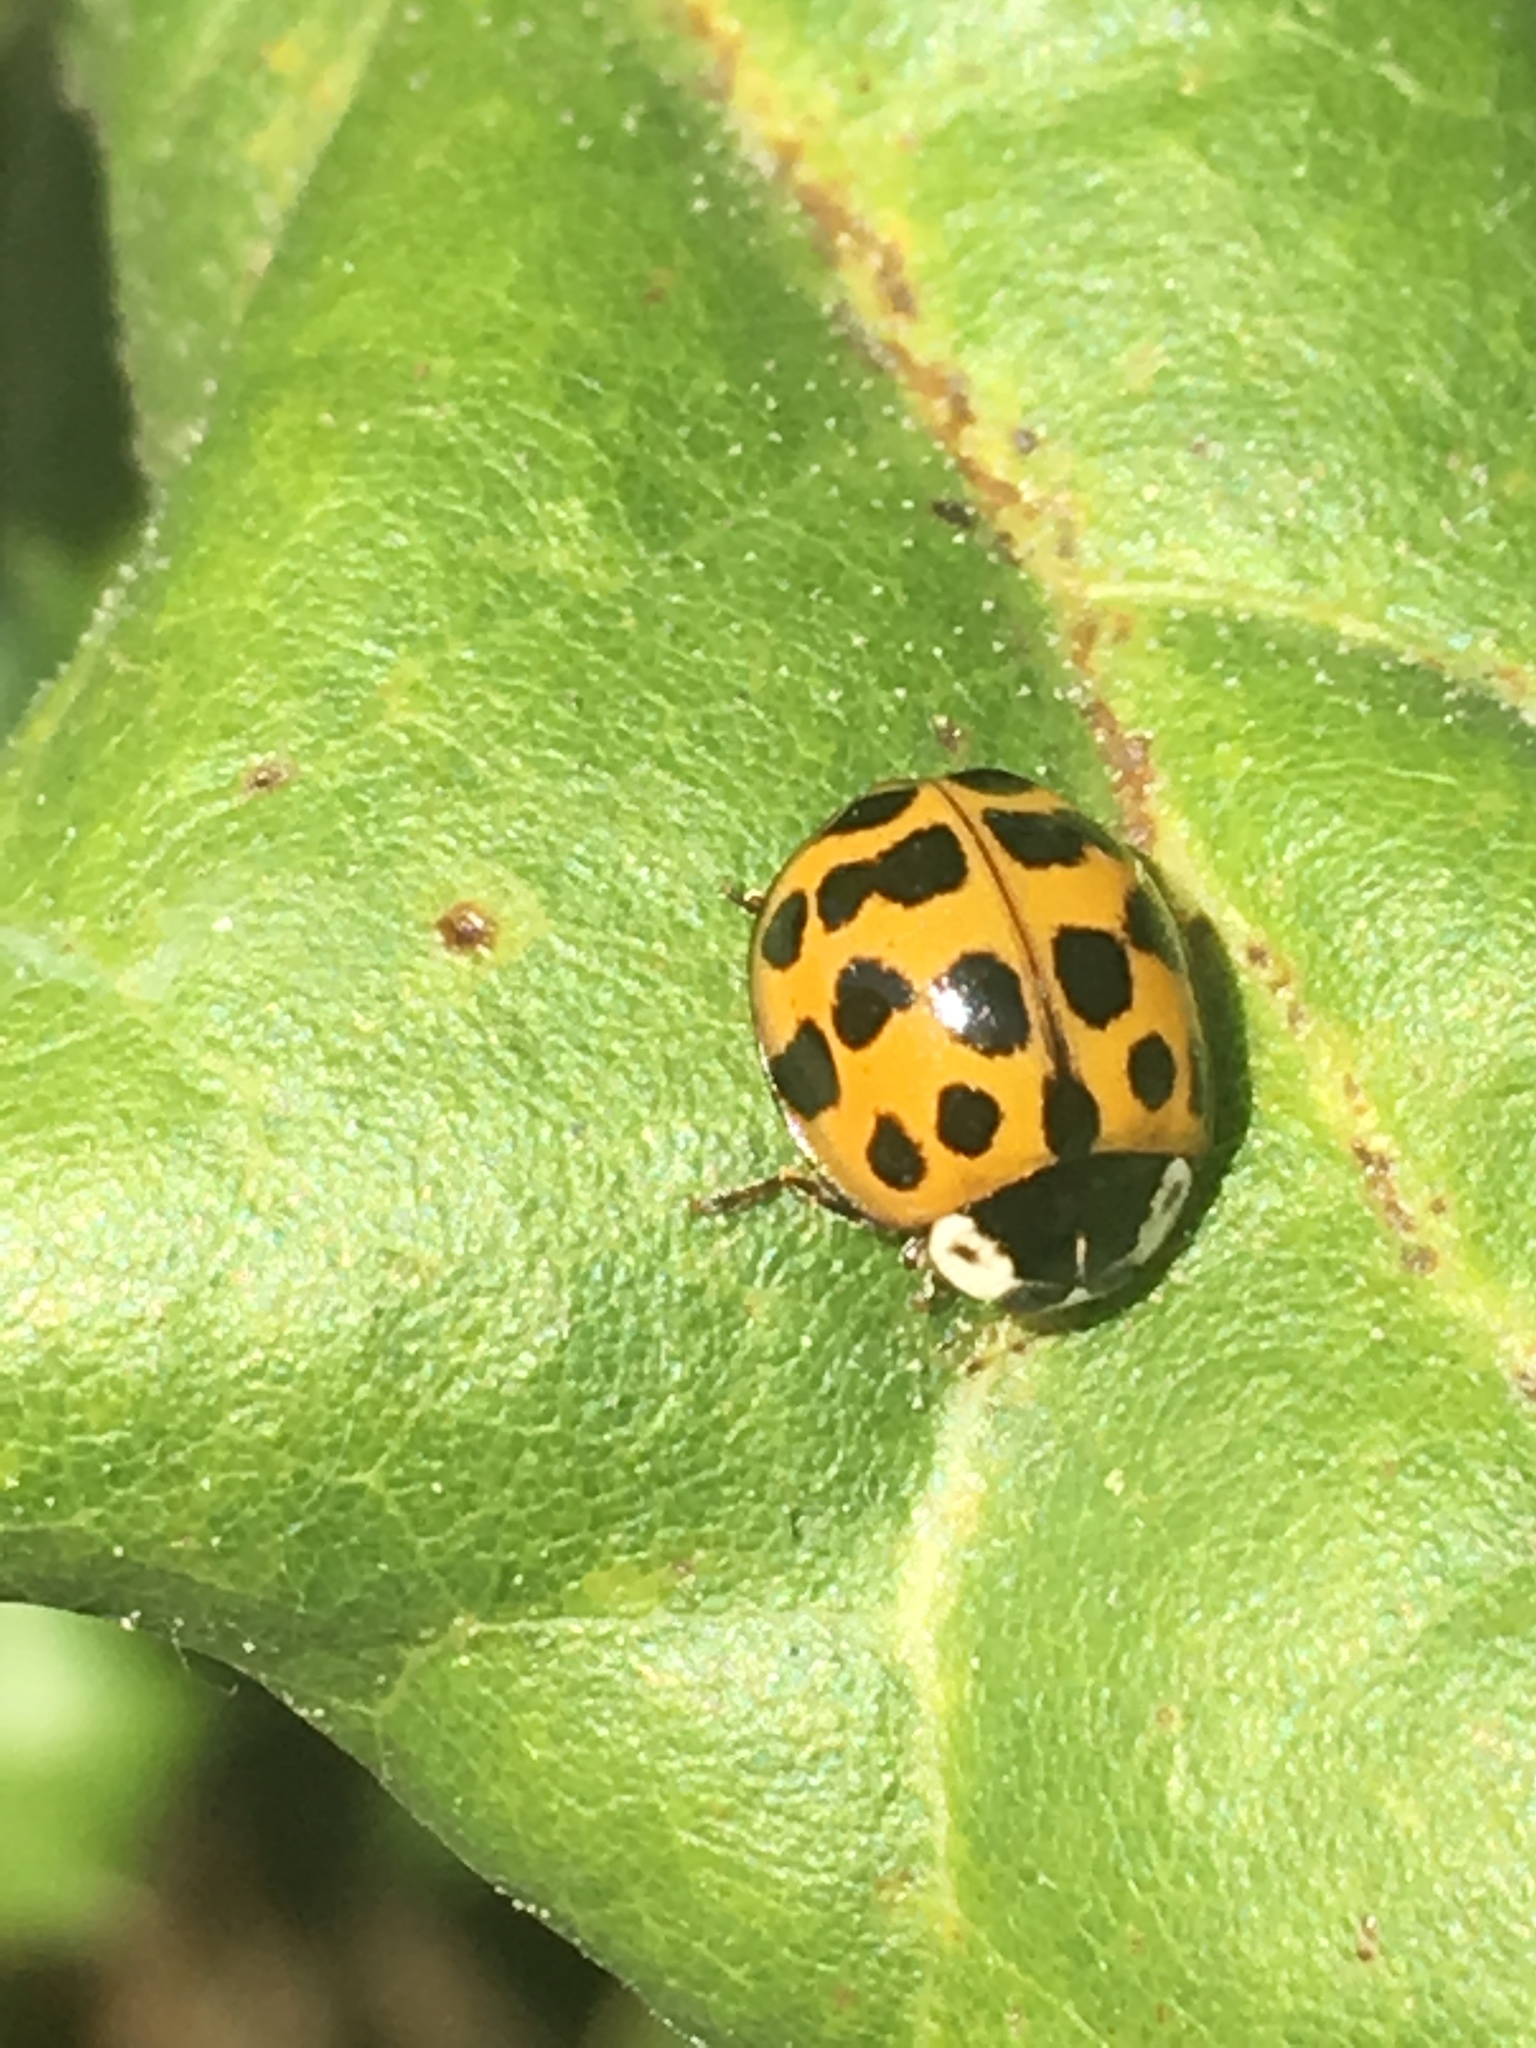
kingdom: Animalia
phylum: Arthropoda
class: Insecta
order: Coleoptera
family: Coccinellidae
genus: Harmonia
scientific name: Harmonia axyridis
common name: Harlequin ladybird
